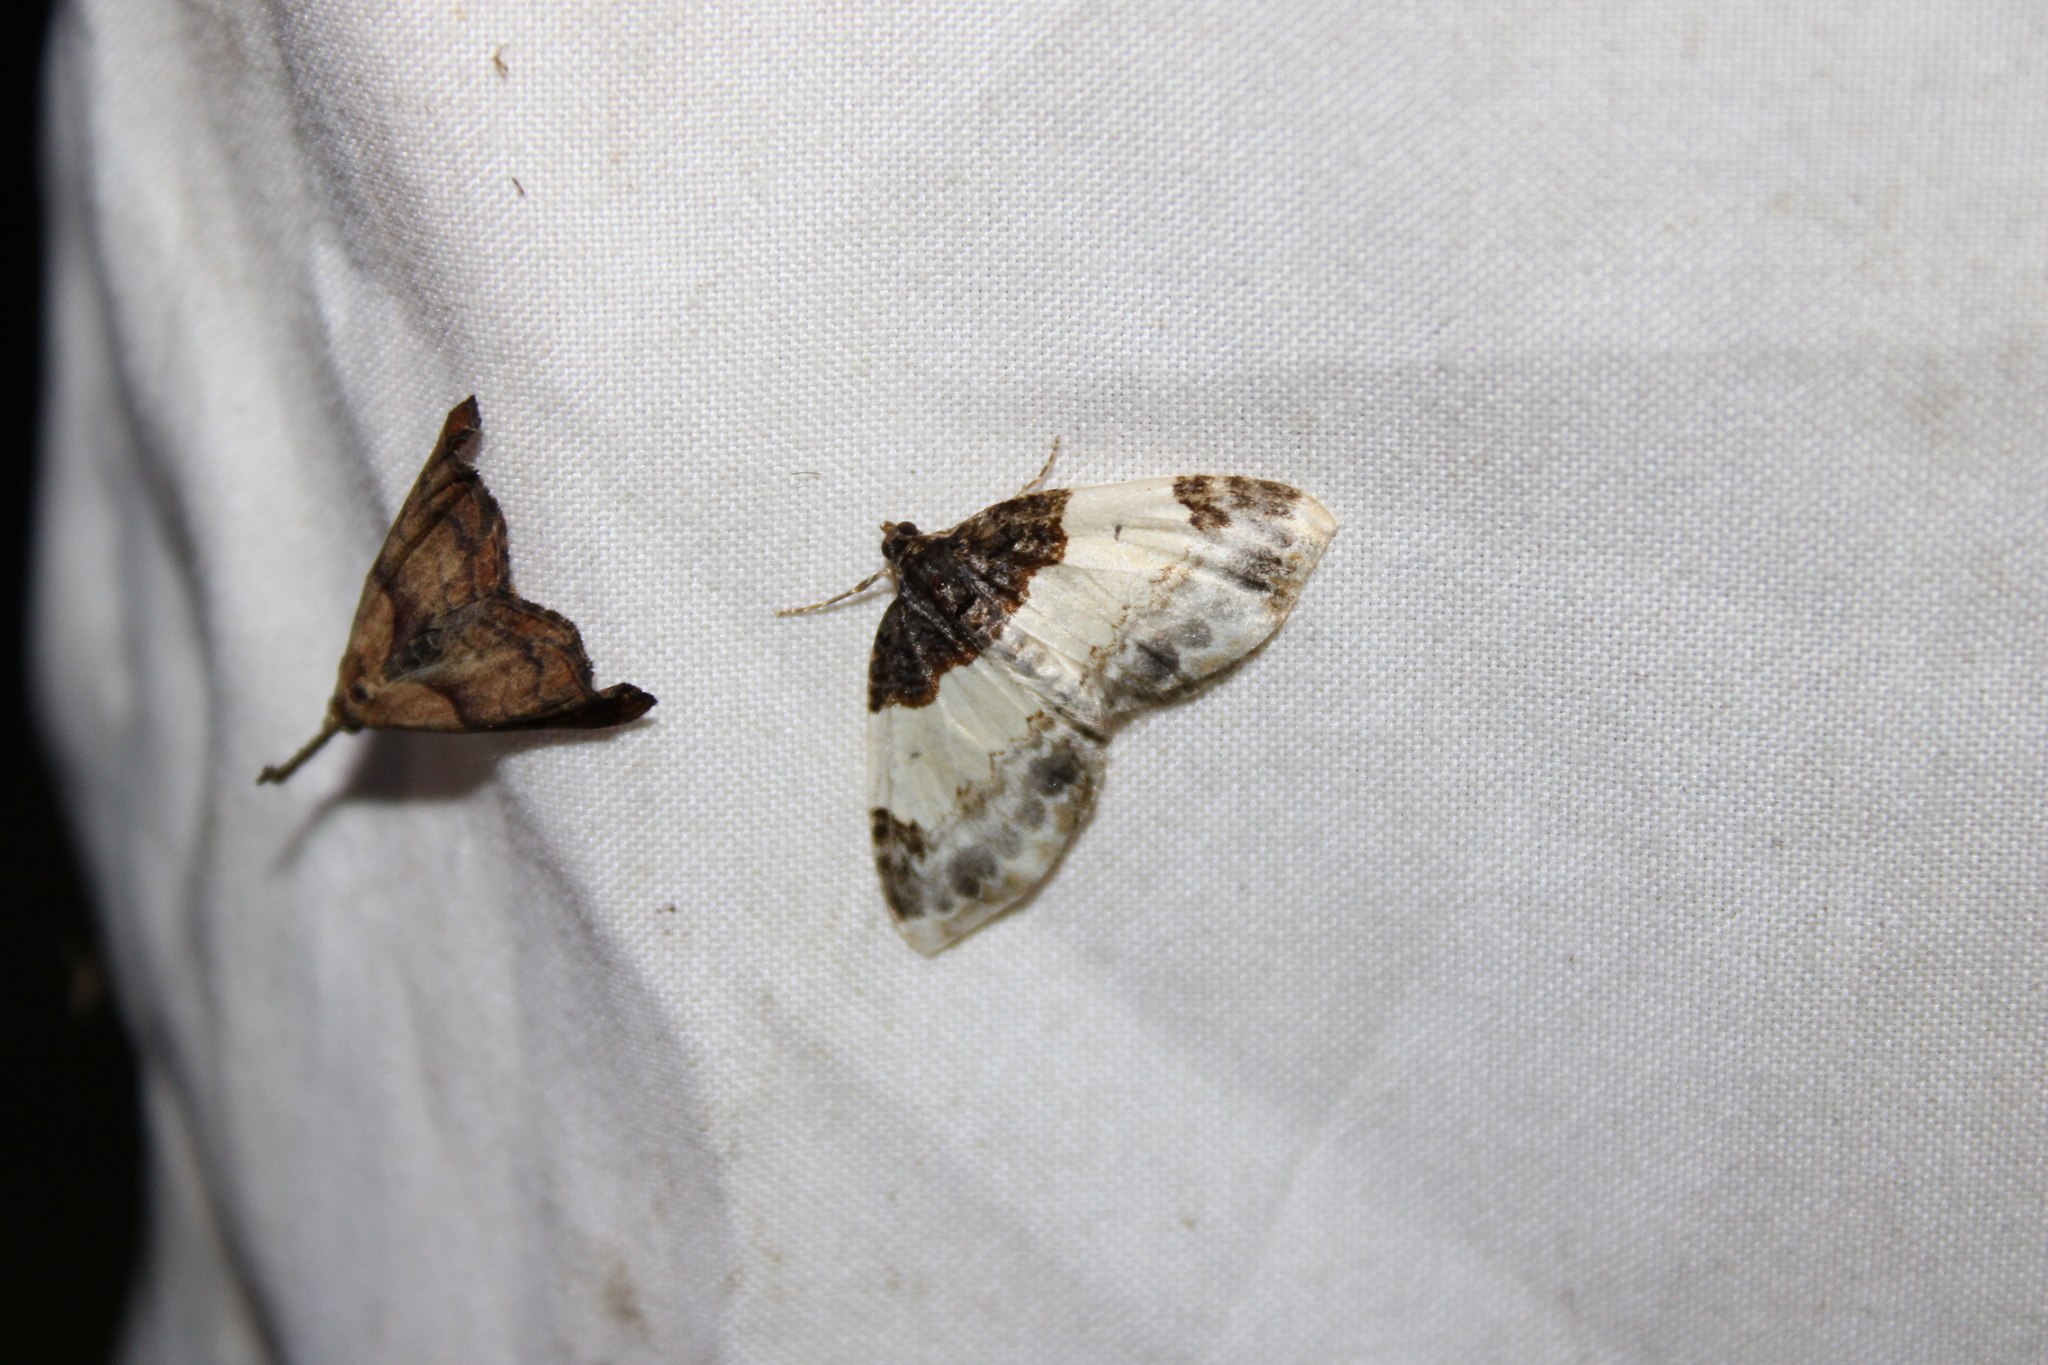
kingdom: Animalia
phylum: Arthropoda
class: Insecta
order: Lepidoptera
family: Geometridae
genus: Mesoleuca
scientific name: Mesoleuca ruficillata
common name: White-ribboned carpet moth
